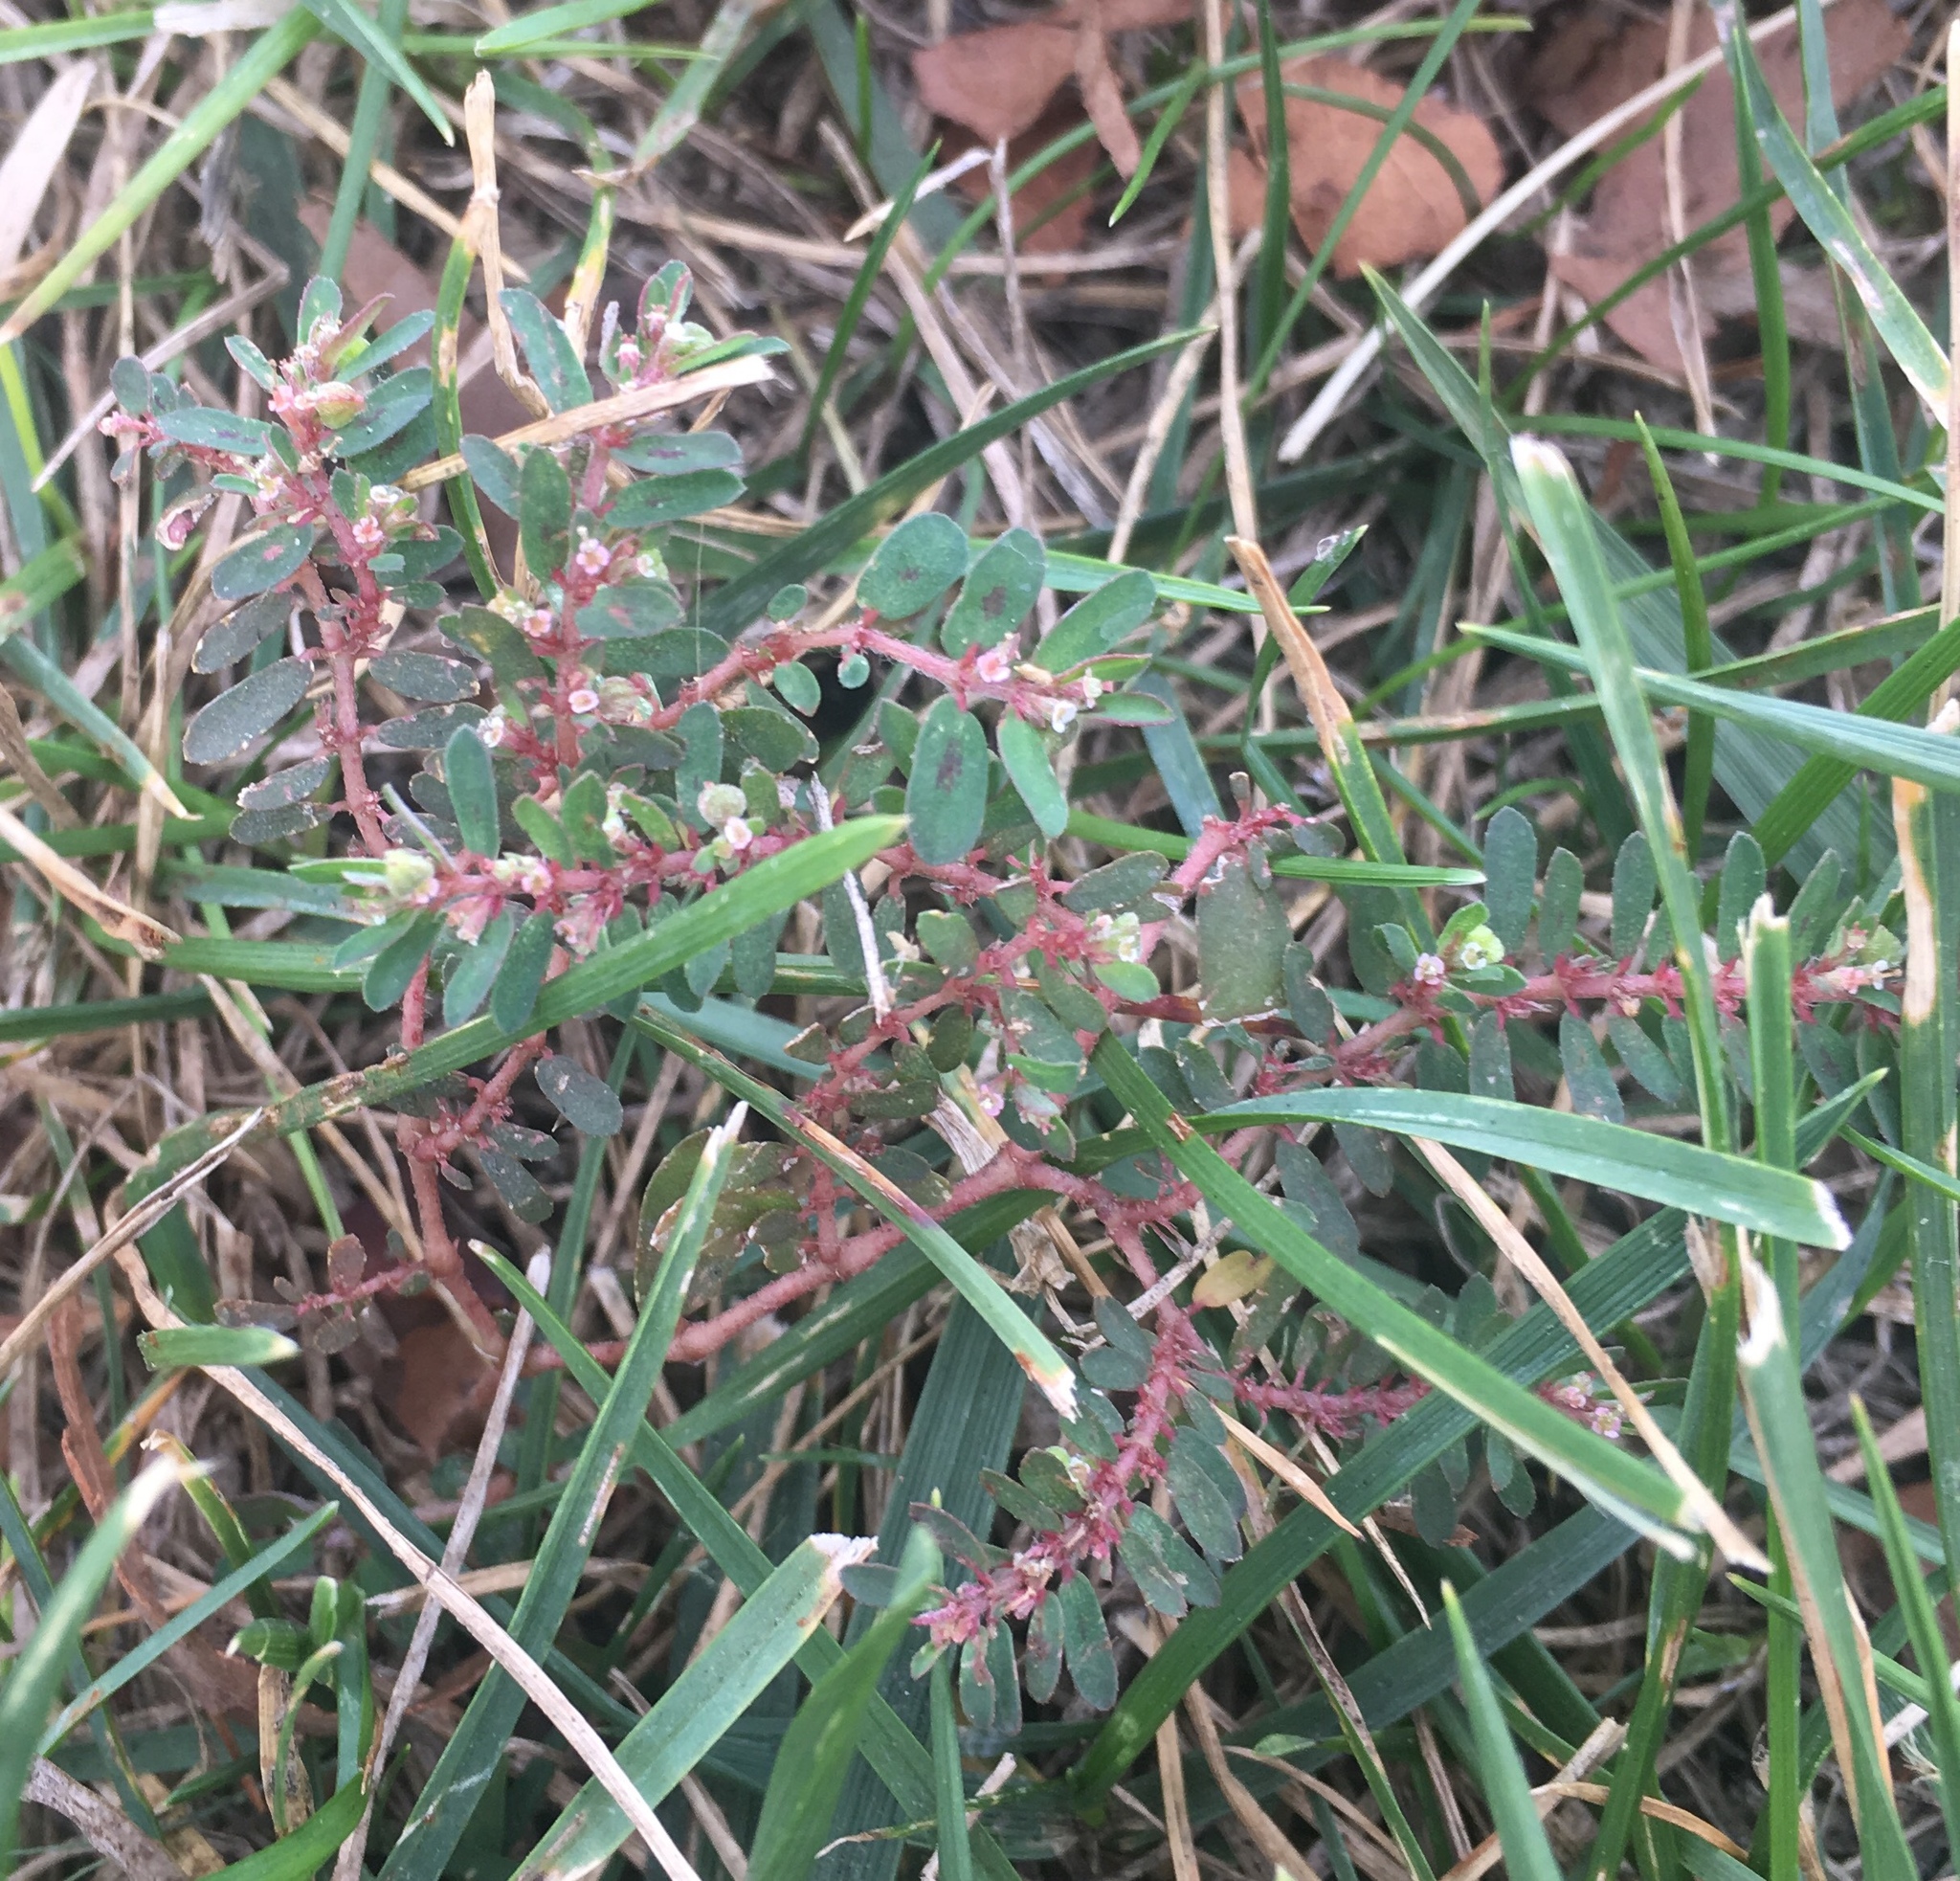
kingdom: Plantae
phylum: Tracheophyta
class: Magnoliopsida
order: Malpighiales
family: Euphorbiaceae
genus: Euphorbia
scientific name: Euphorbia maculata
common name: Spotted spurge
